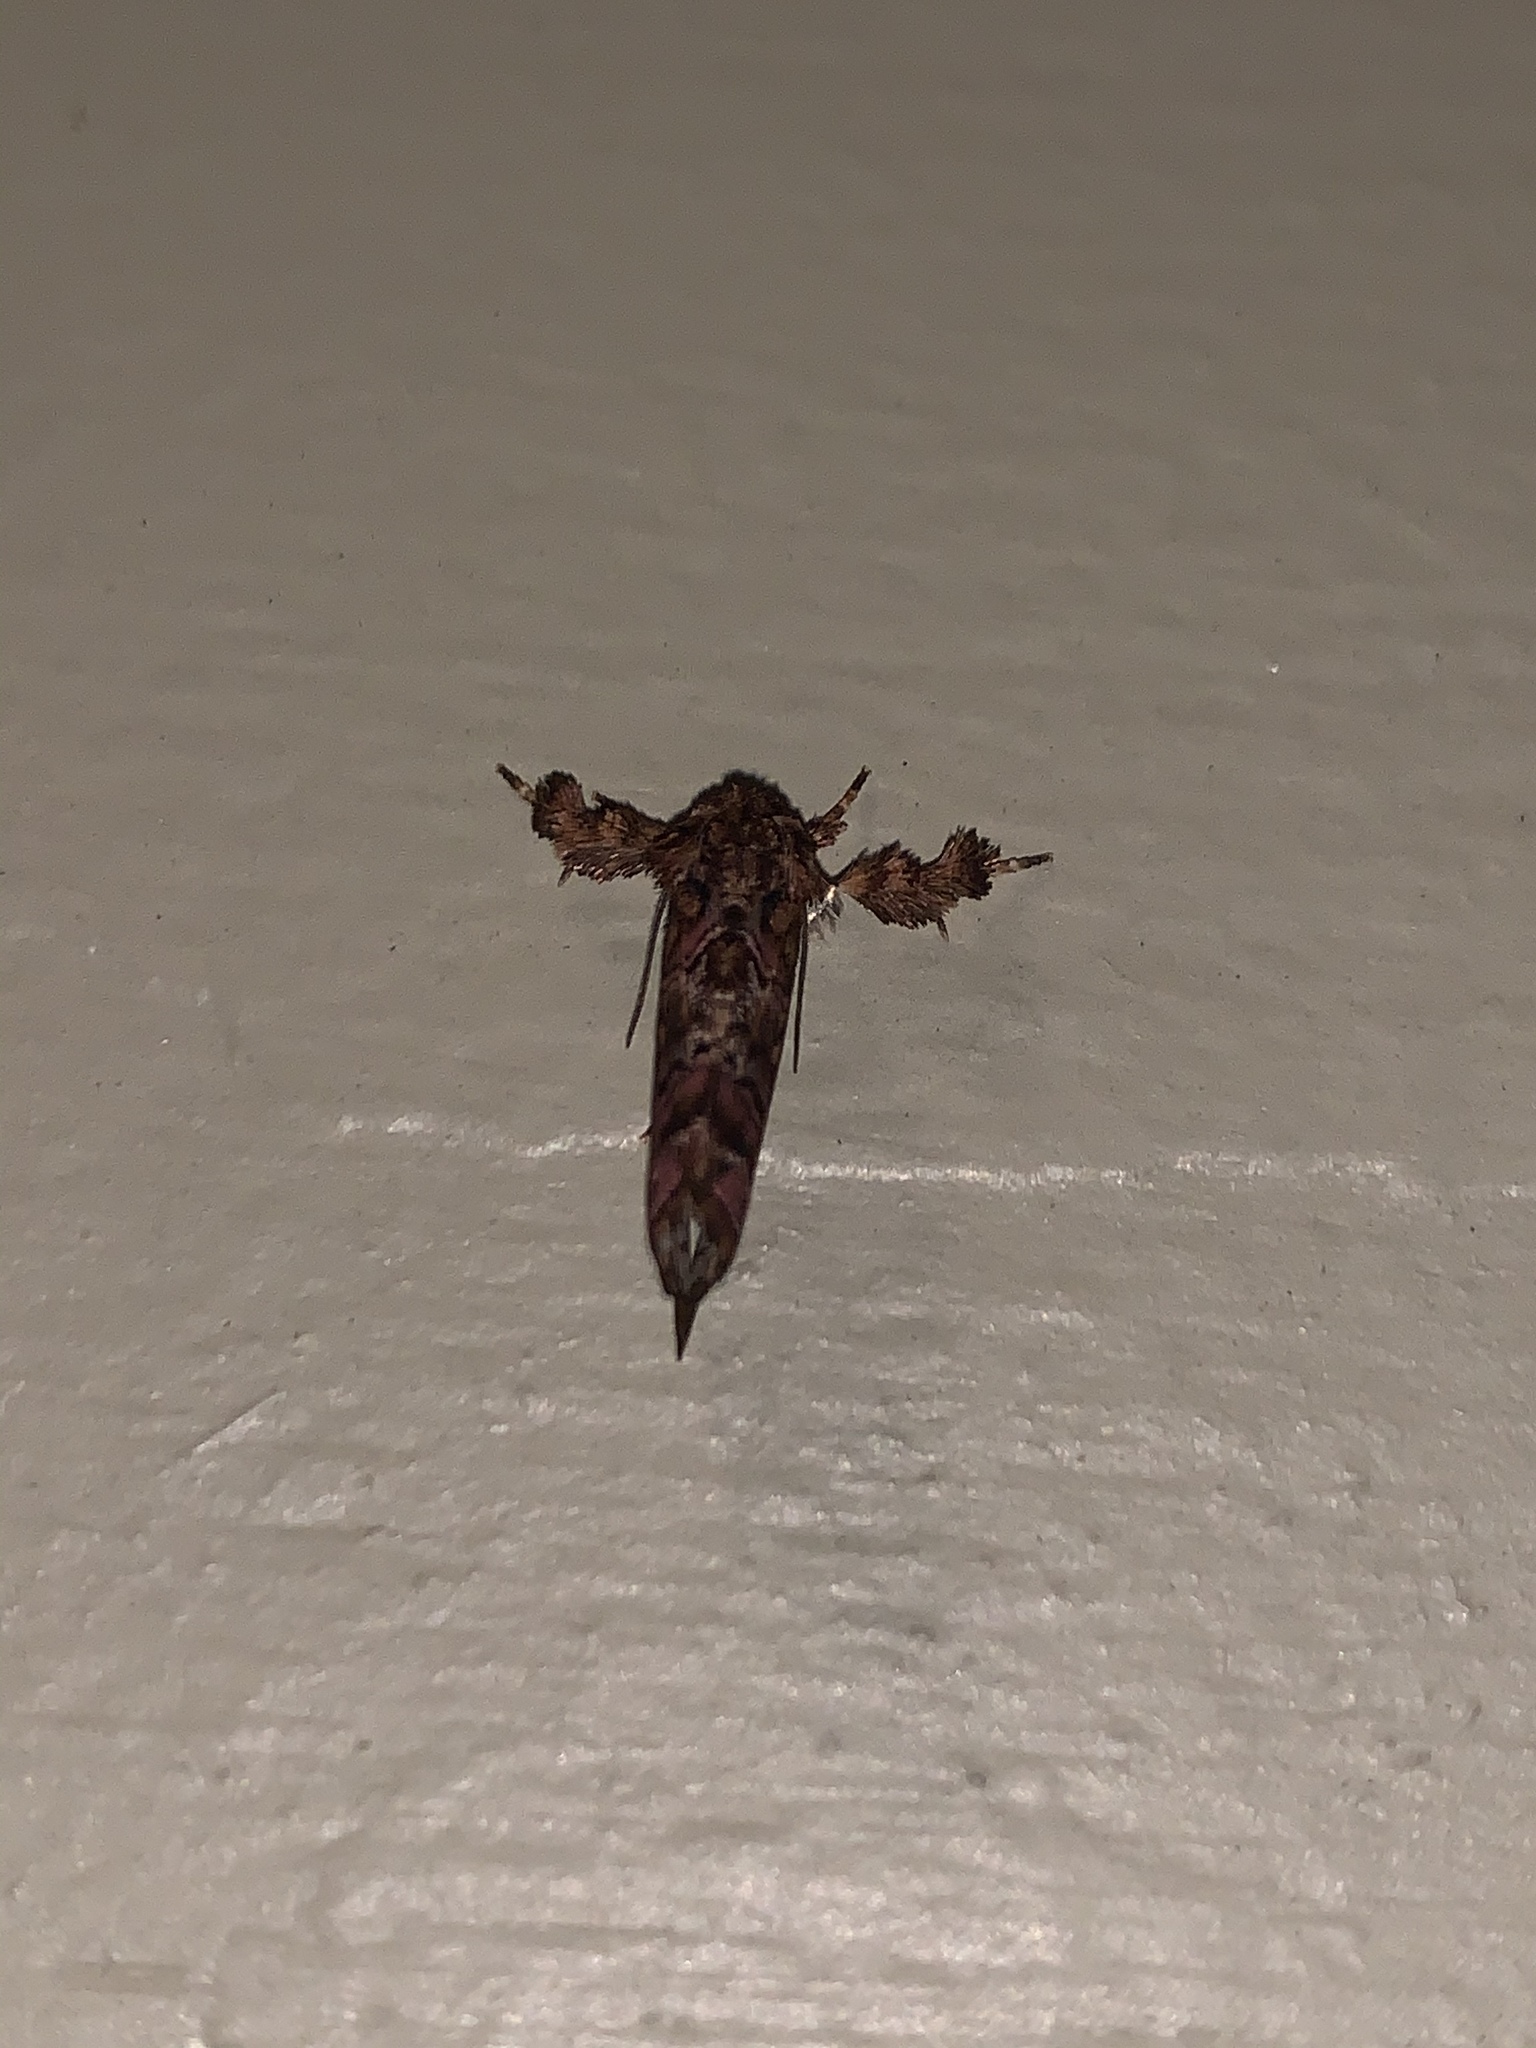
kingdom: Animalia
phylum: Arthropoda
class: Insecta
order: Lepidoptera
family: Noctuidae
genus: Callopistria
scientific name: Callopistria mollissima
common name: Pink-shaded fern moth
